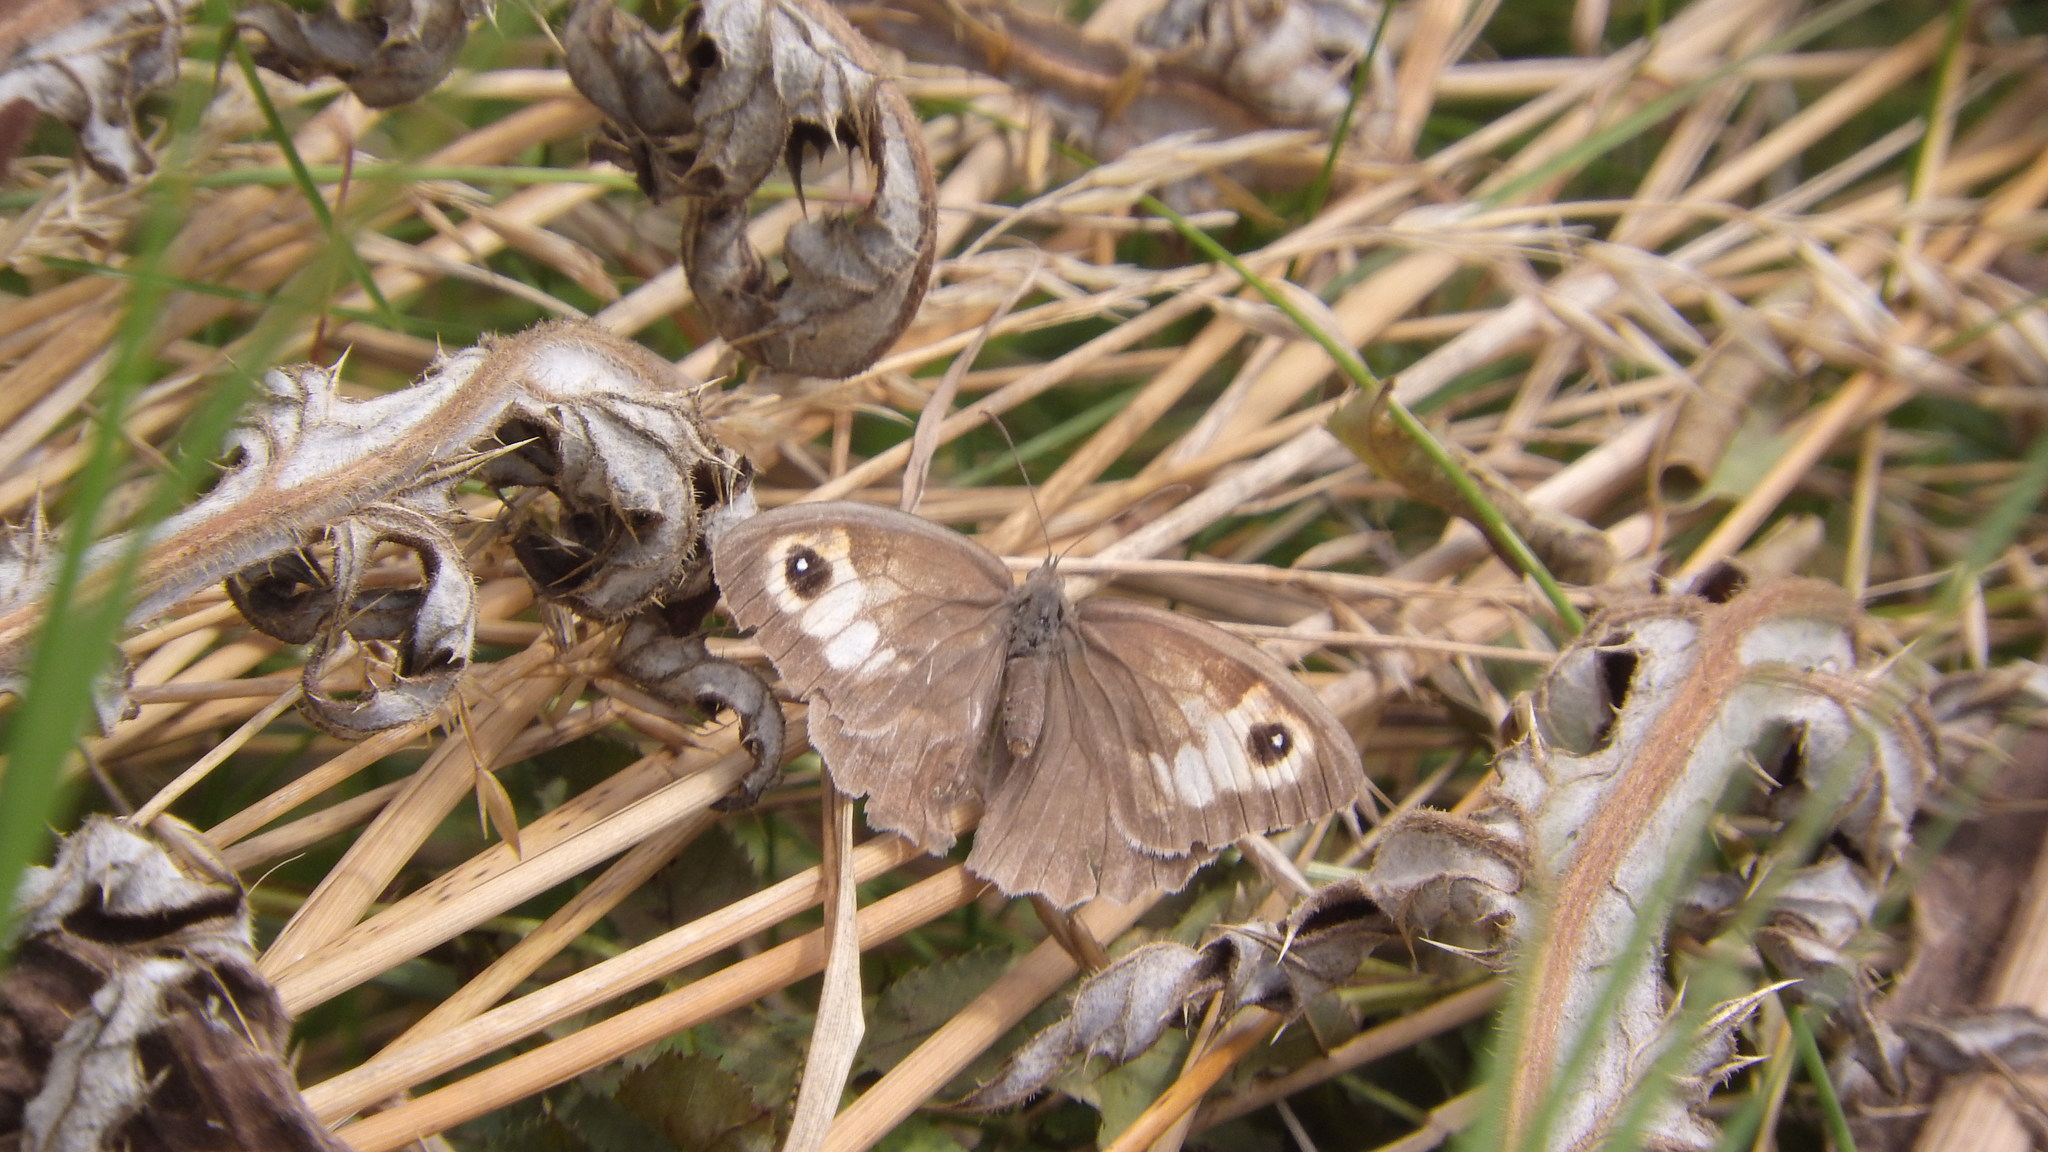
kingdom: Animalia
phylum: Arthropoda
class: Insecta
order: Lepidoptera
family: Nymphalidae
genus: Maniola
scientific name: Maniola jurtina
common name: Meadow brown
